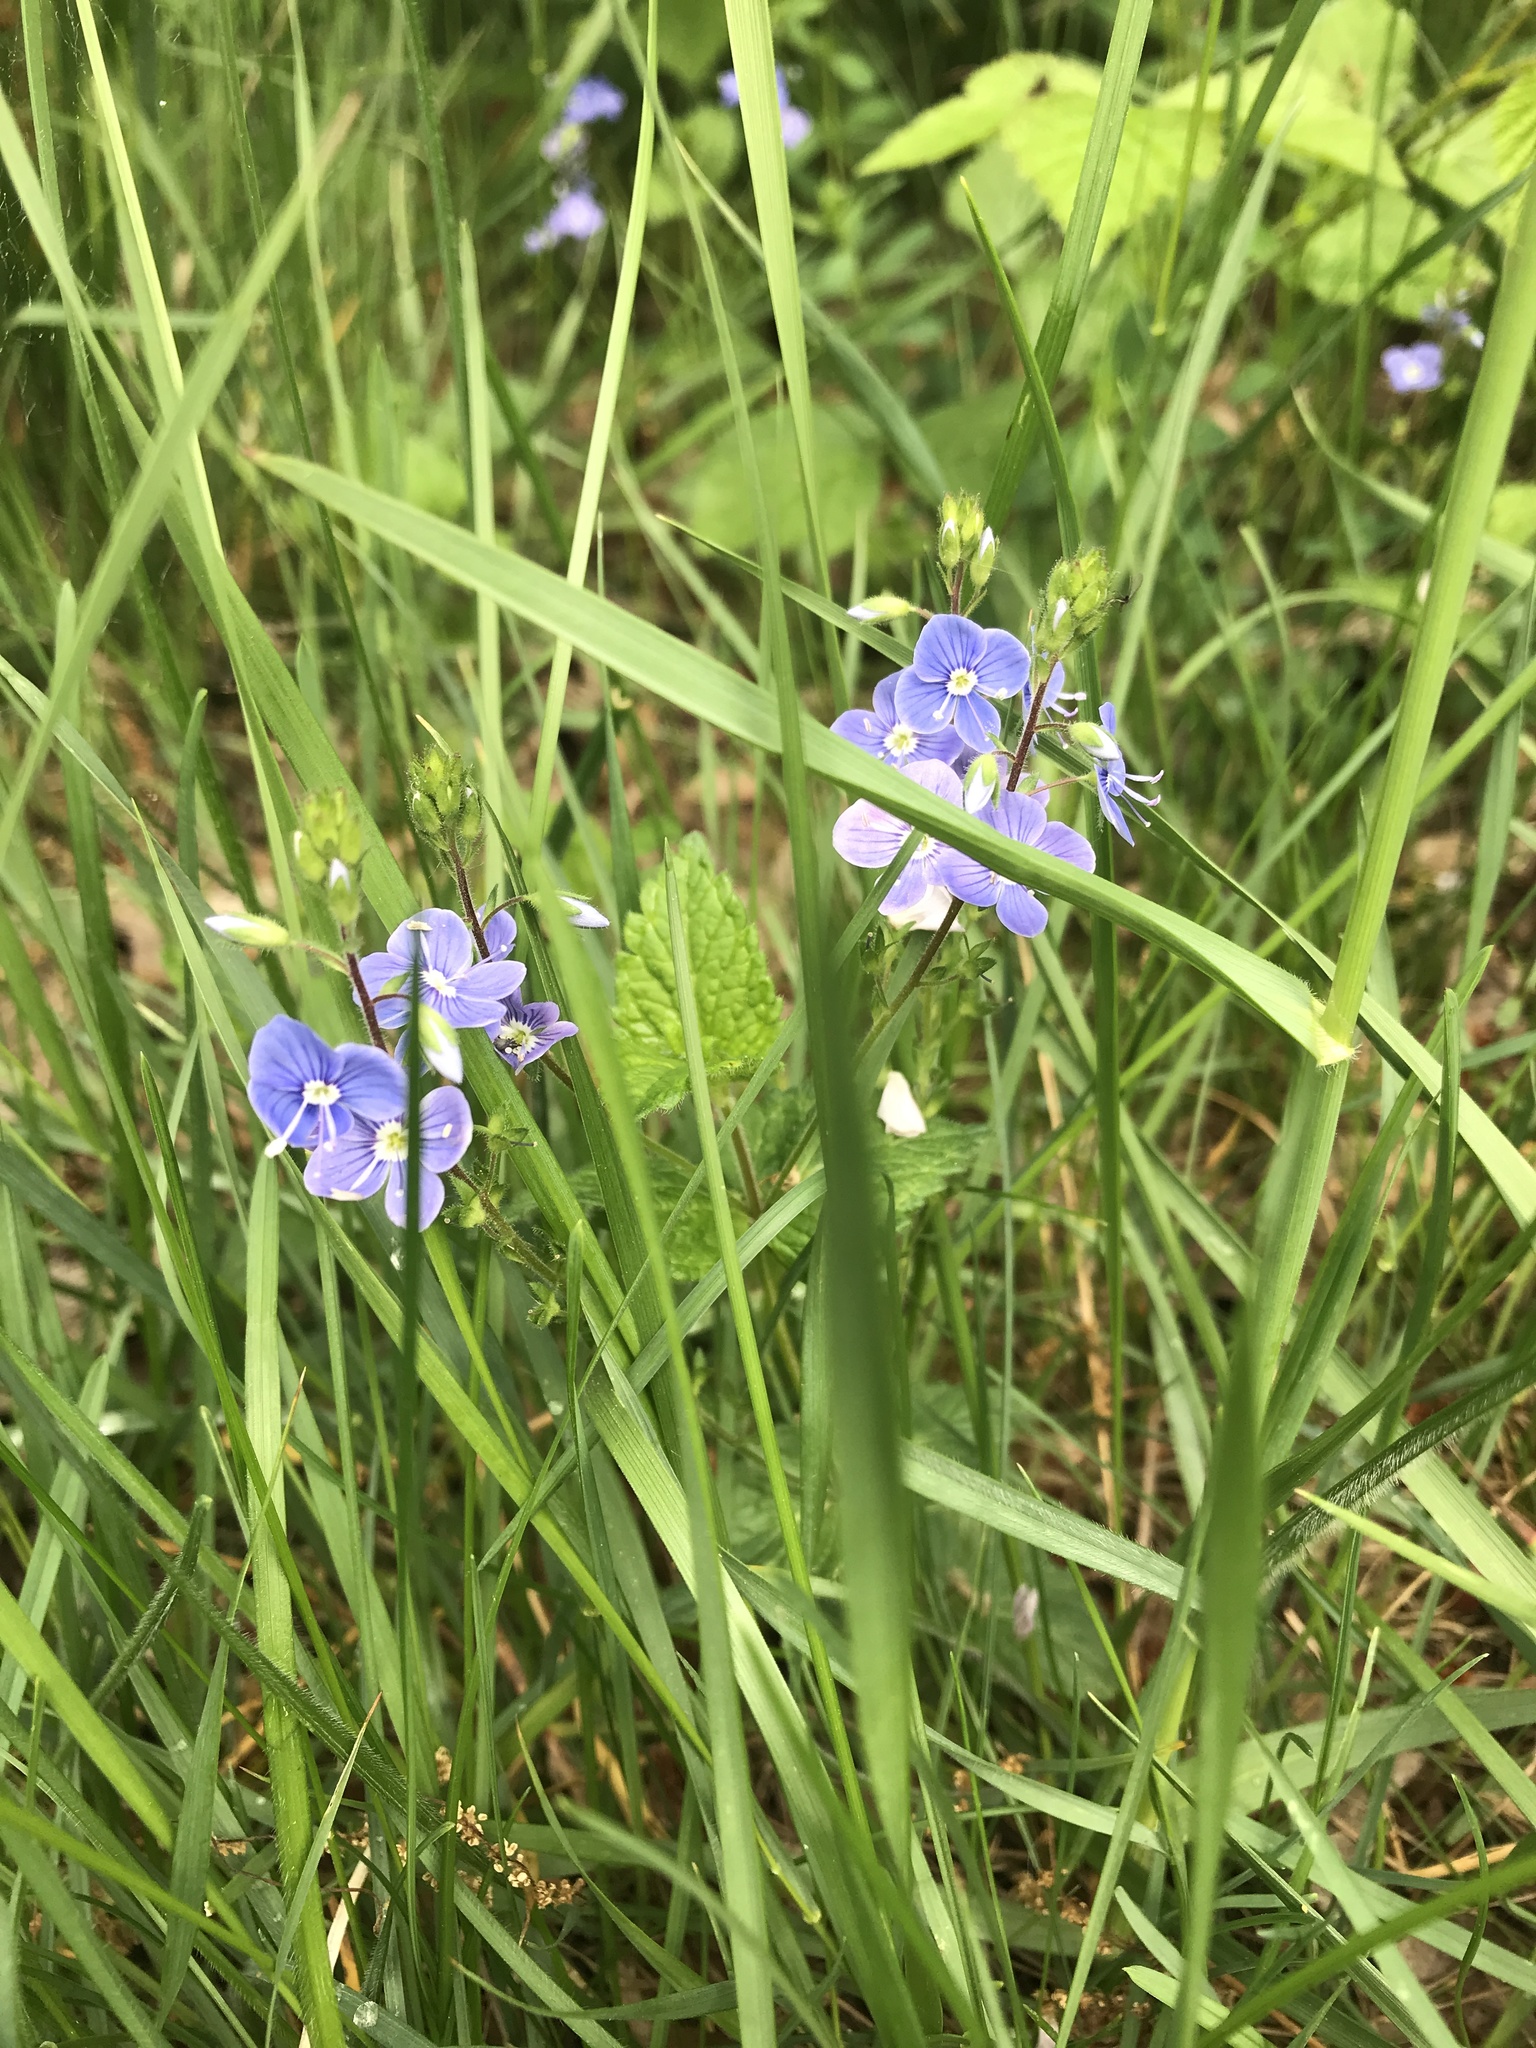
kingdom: Plantae
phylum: Tracheophyta
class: Magnoliopsida
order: Lamiales
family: Plantaginaceae
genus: Veronica
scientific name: Veronica chamaedrys
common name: Germander speedwell
